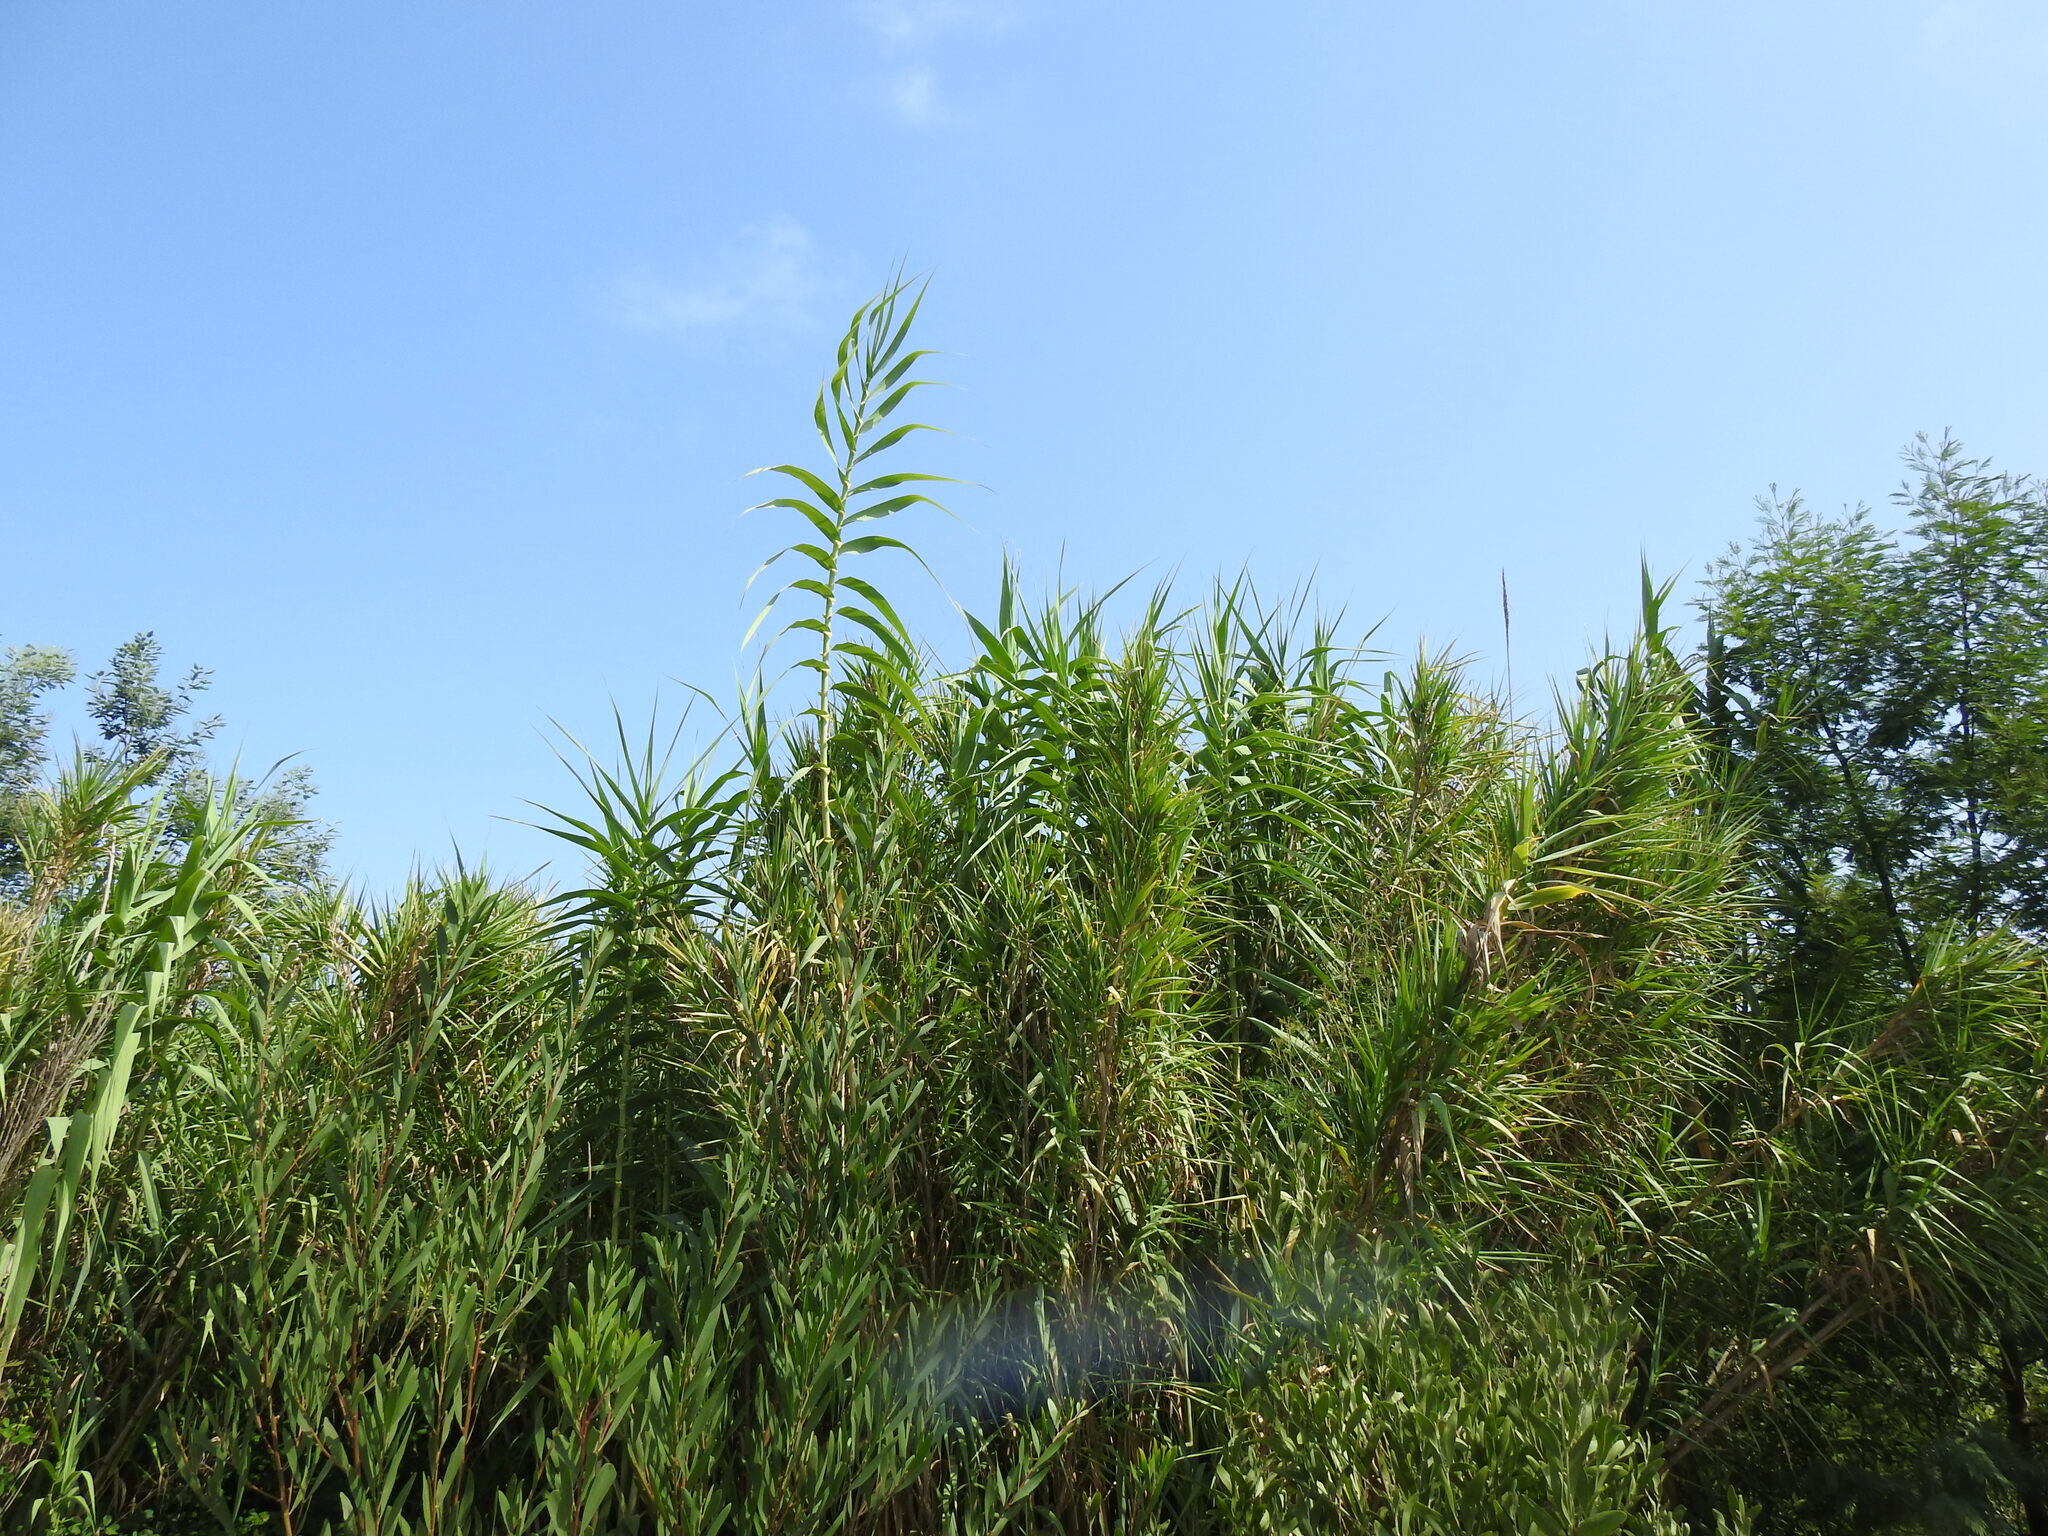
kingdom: Plantae
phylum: Tracheophyta
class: Liliopsida
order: Poales
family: Poaceae
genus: Arundo
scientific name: Arundo donax
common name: Giant reed
